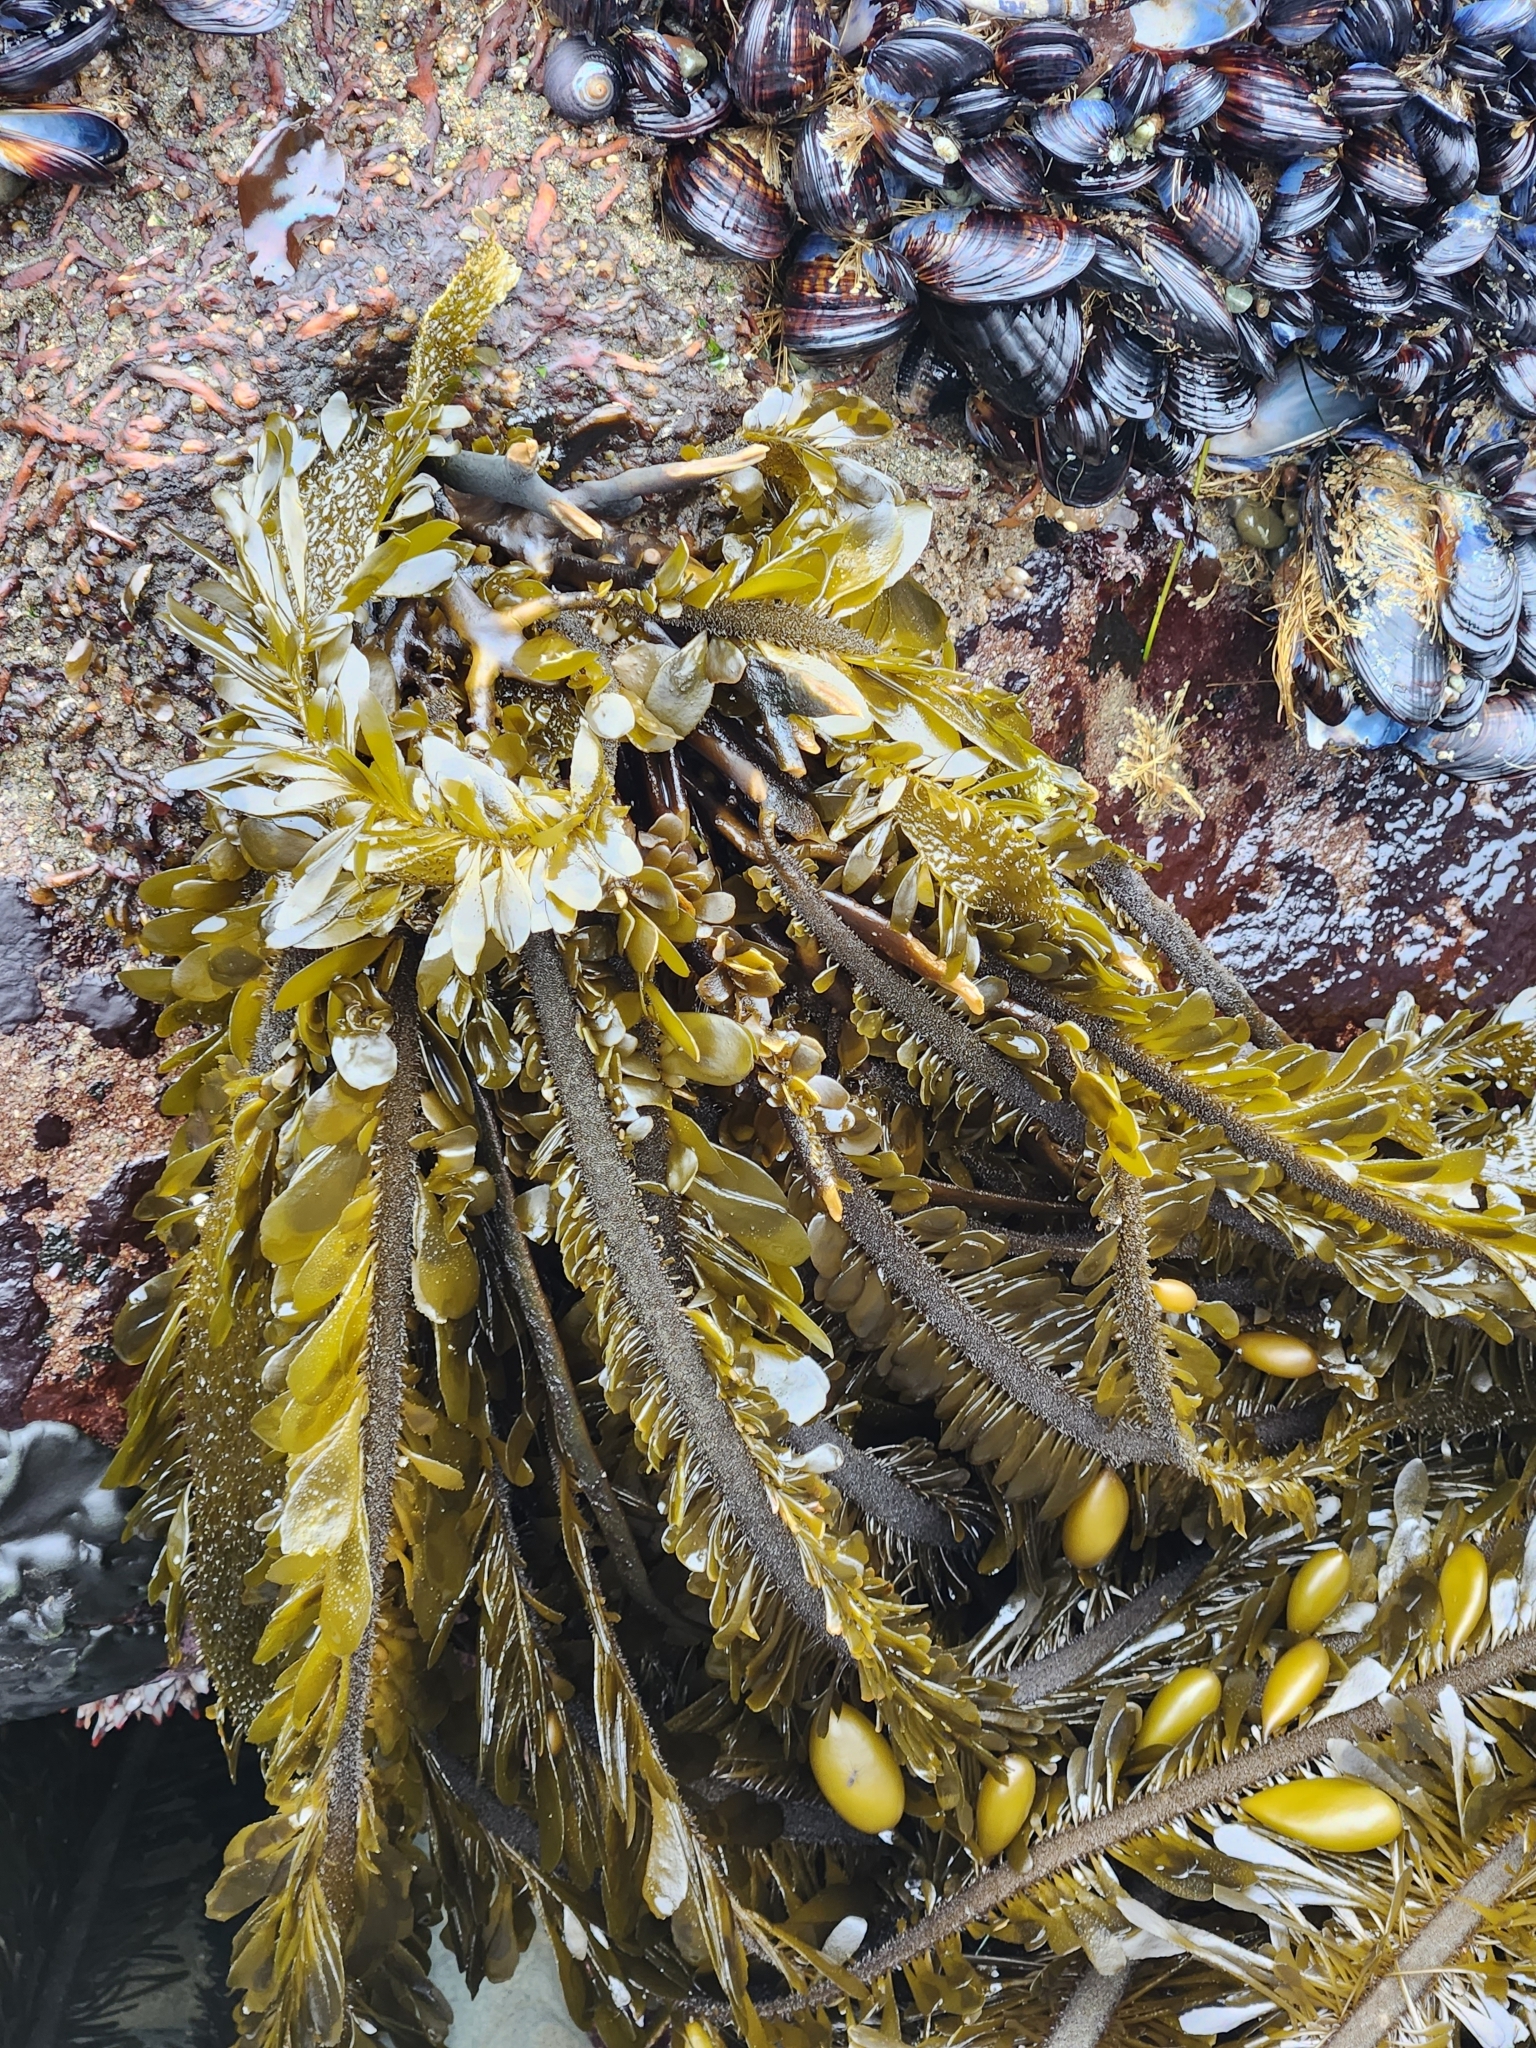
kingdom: Chromista
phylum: Ochrophyta
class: Phaeophyceae
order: Laminariales
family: Lessoniaceae
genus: Egregia
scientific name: Egregia menziesii
